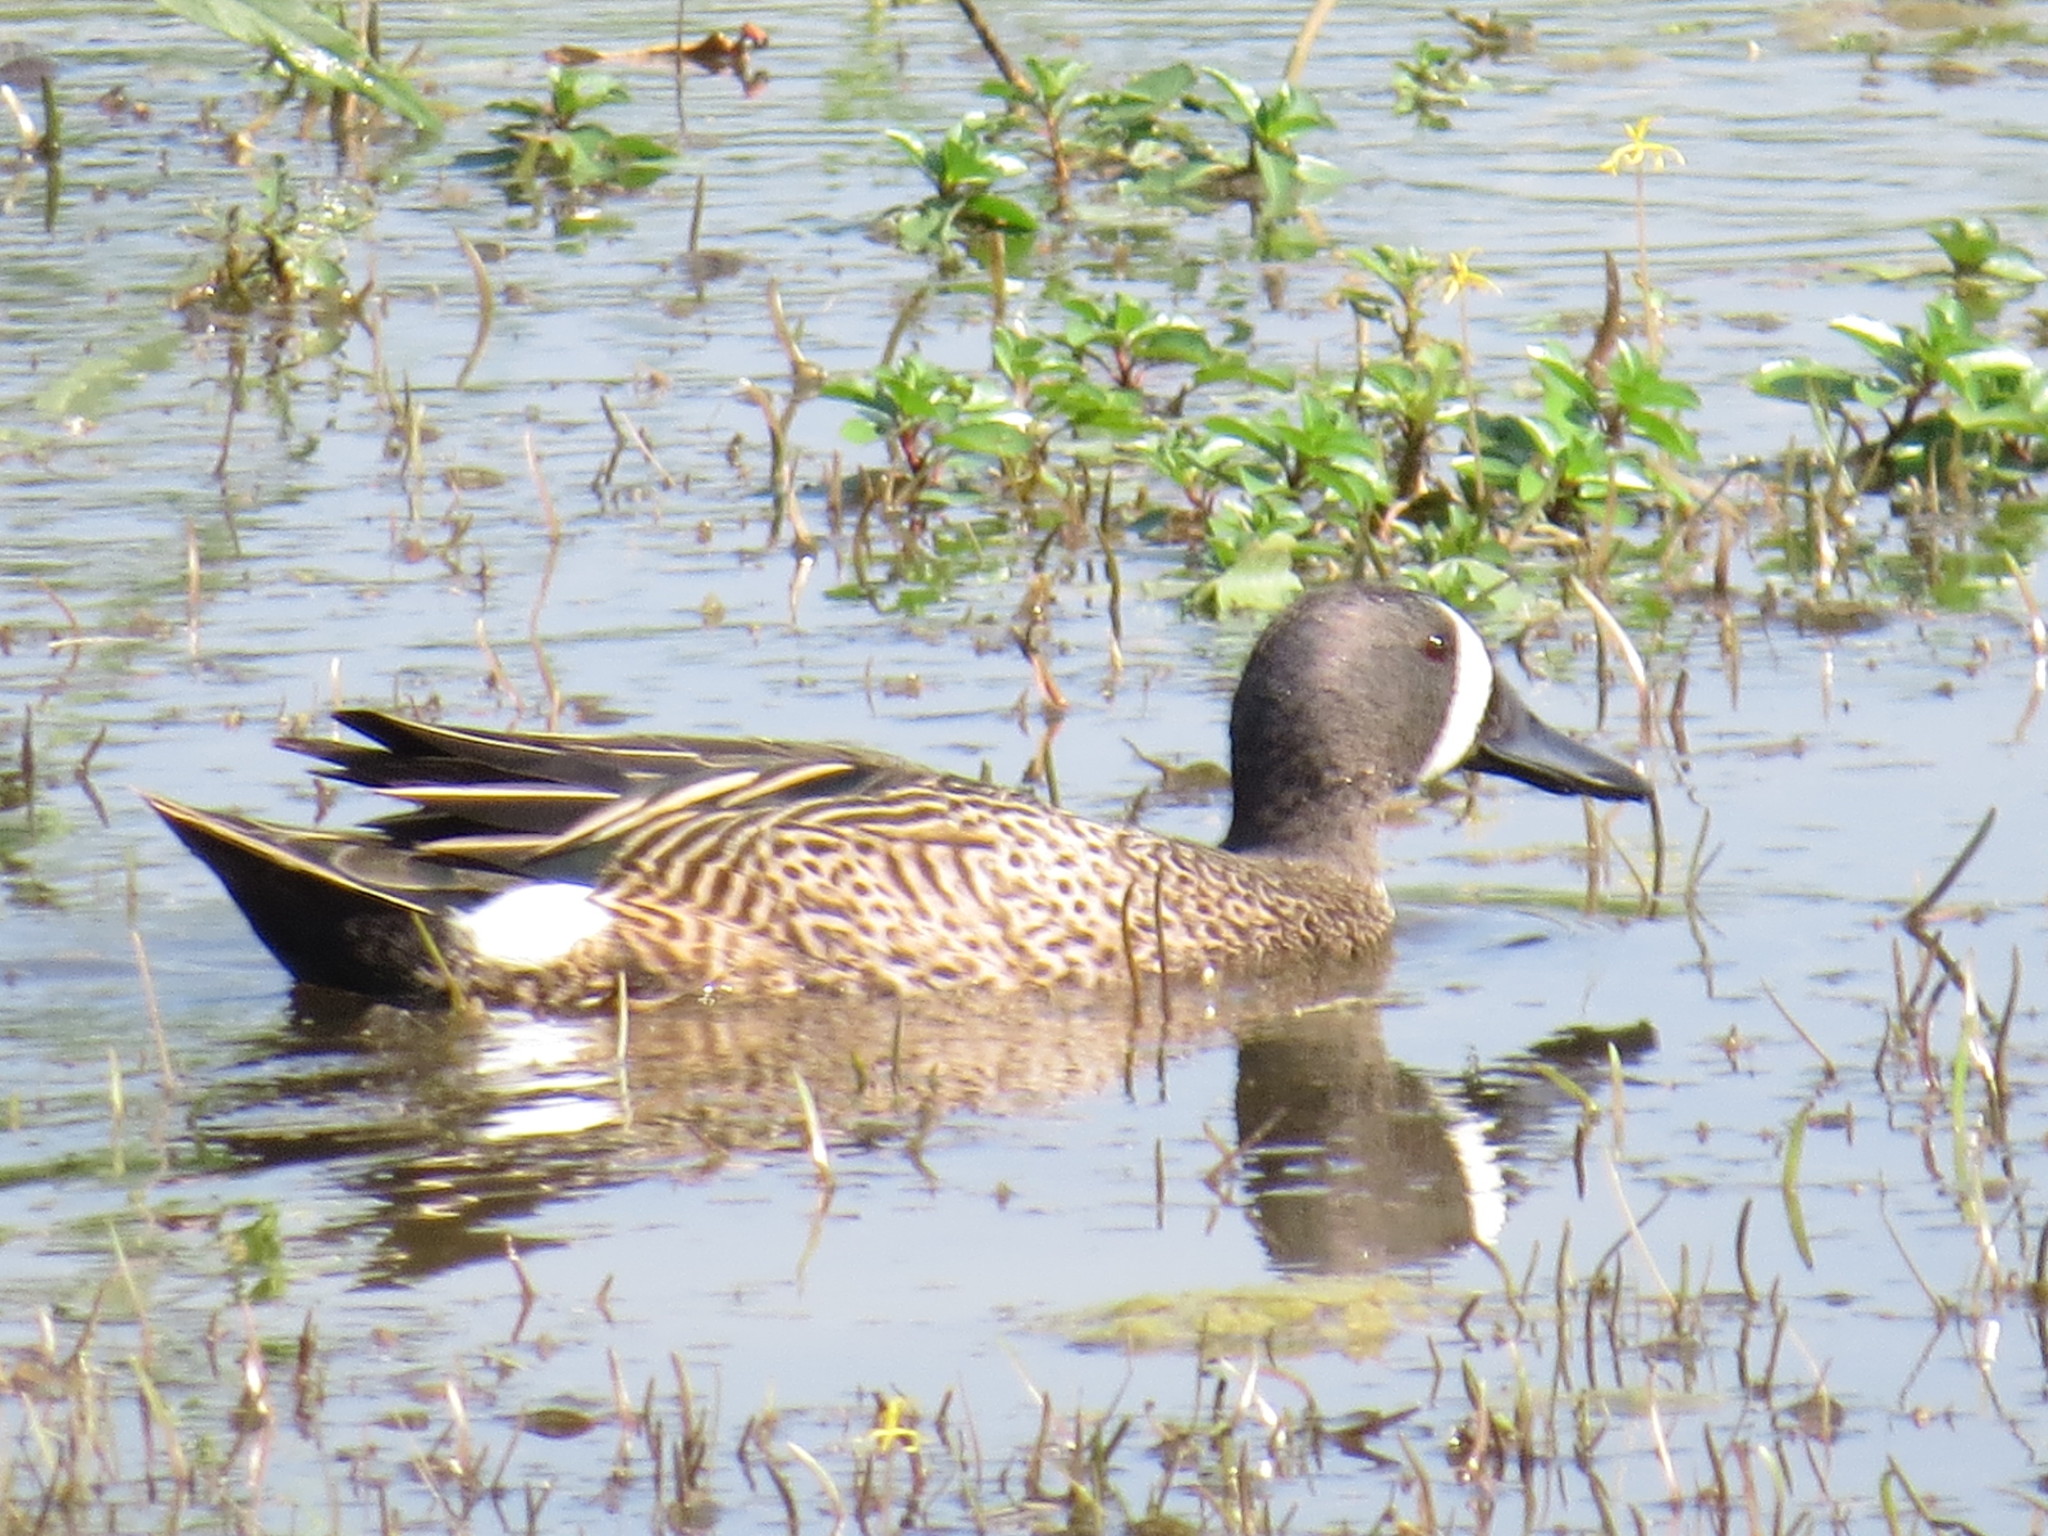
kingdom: Animalia
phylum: Chordata
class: Aves
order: Anseriformes
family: Anatidae
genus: Spatula
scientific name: Spatula discors
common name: Blue-winged teal
